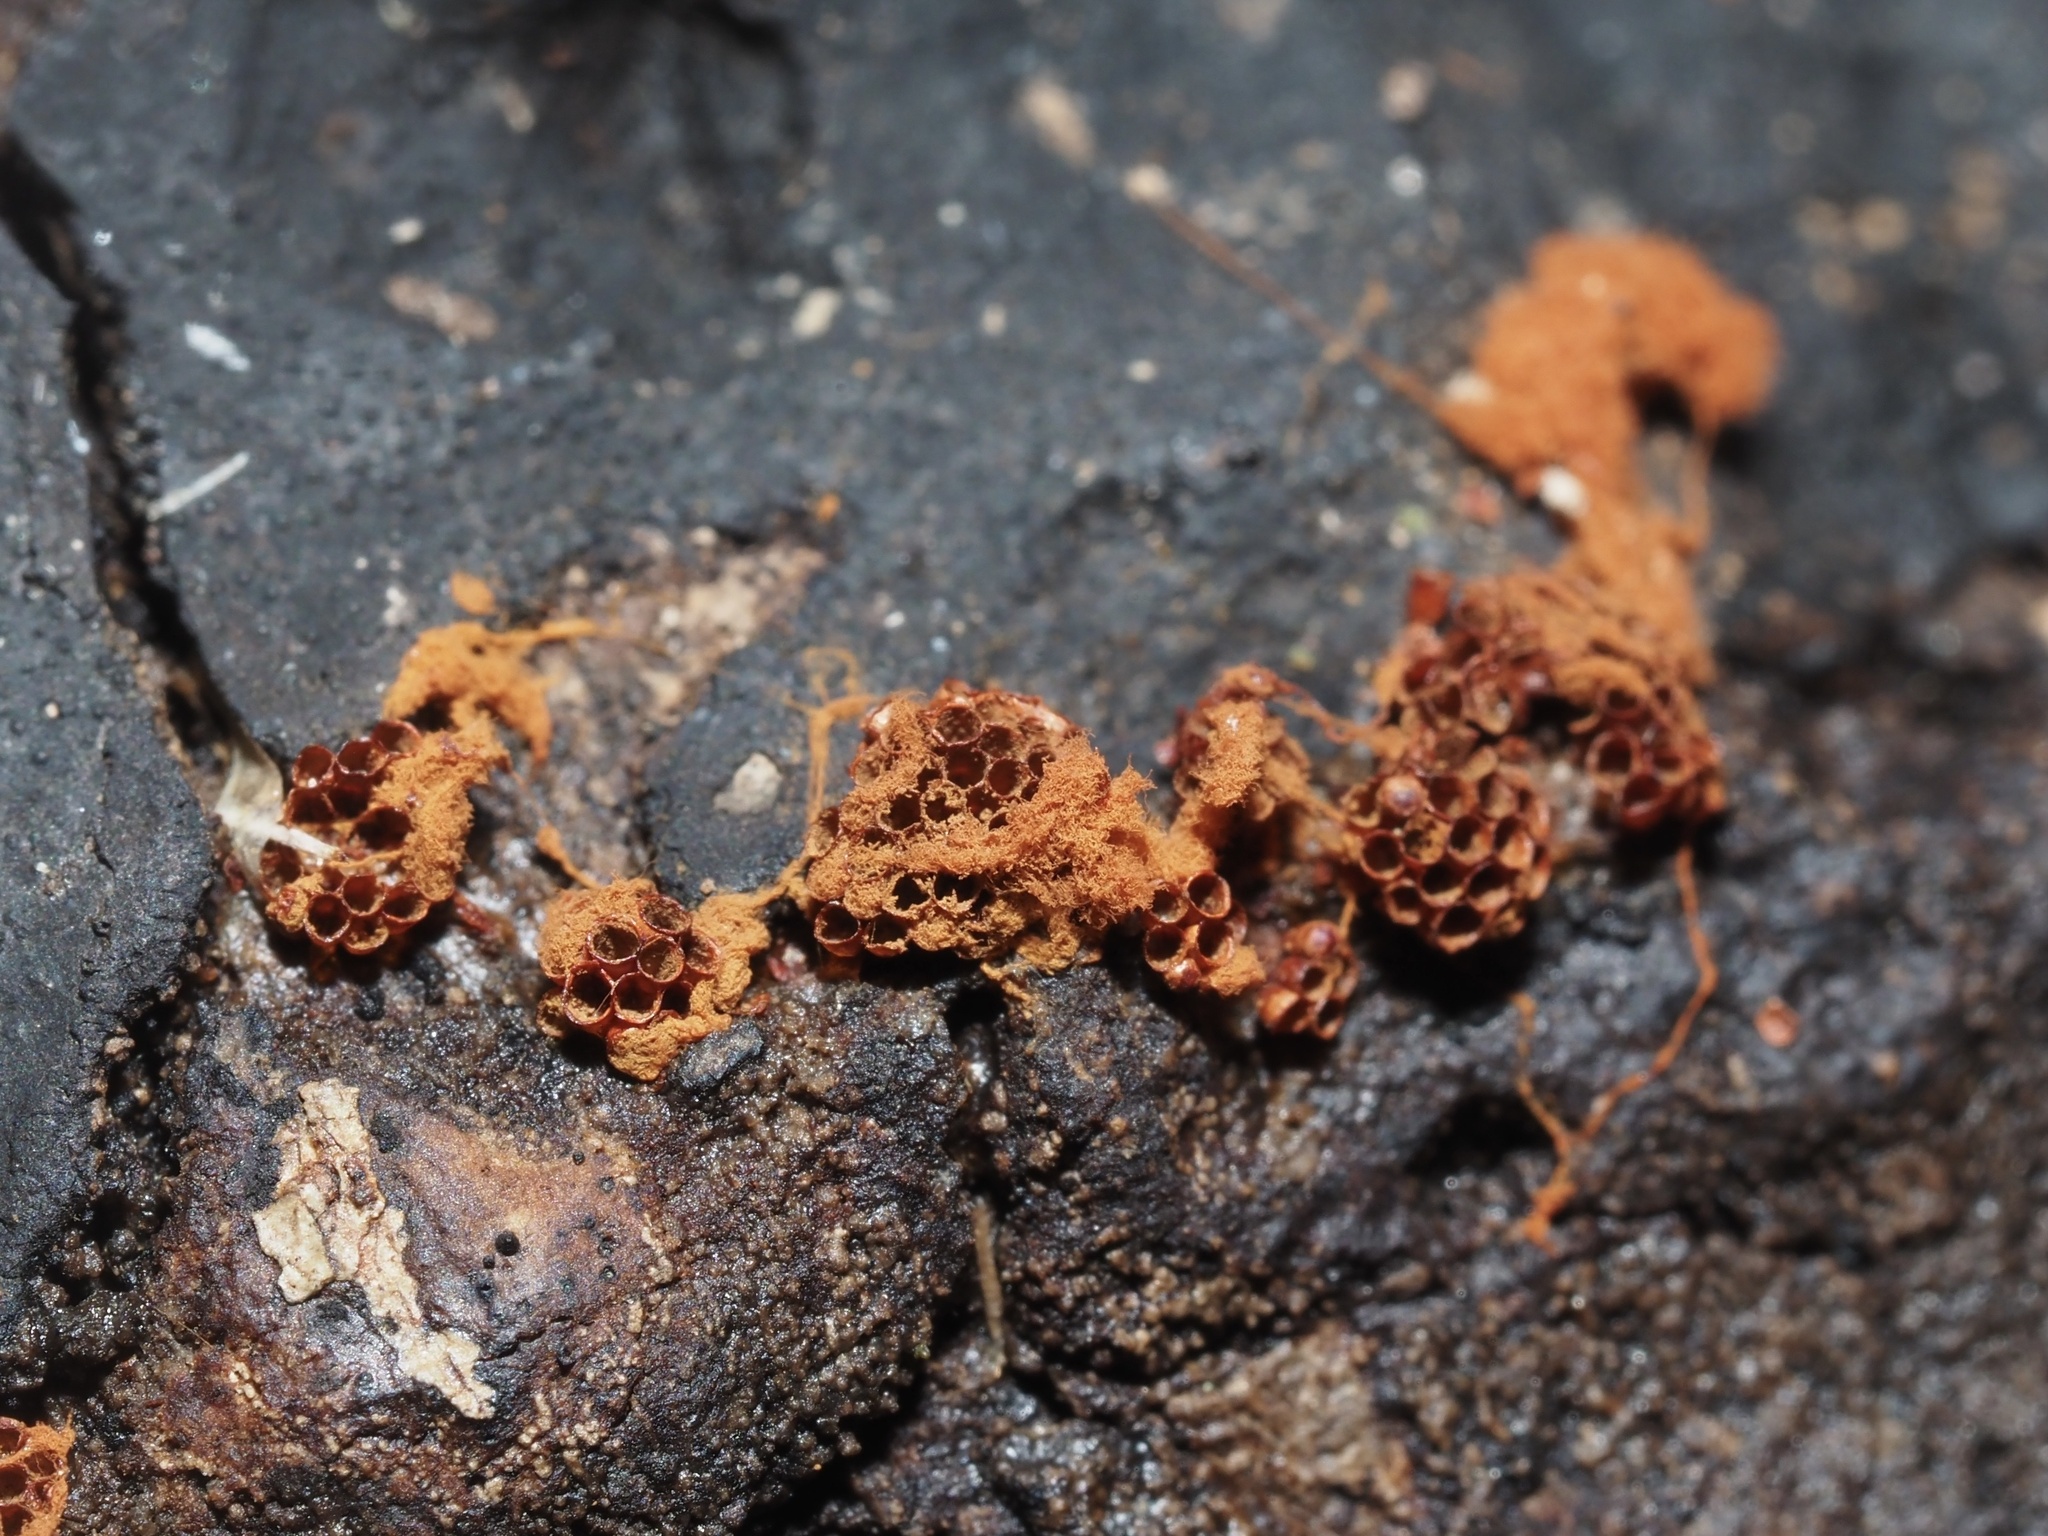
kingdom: Protozoa
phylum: Mycetozoa
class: Myxomycetes
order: Trichiales
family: Trichiaceae
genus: Metatrichia
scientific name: Metatrichia vesparia
